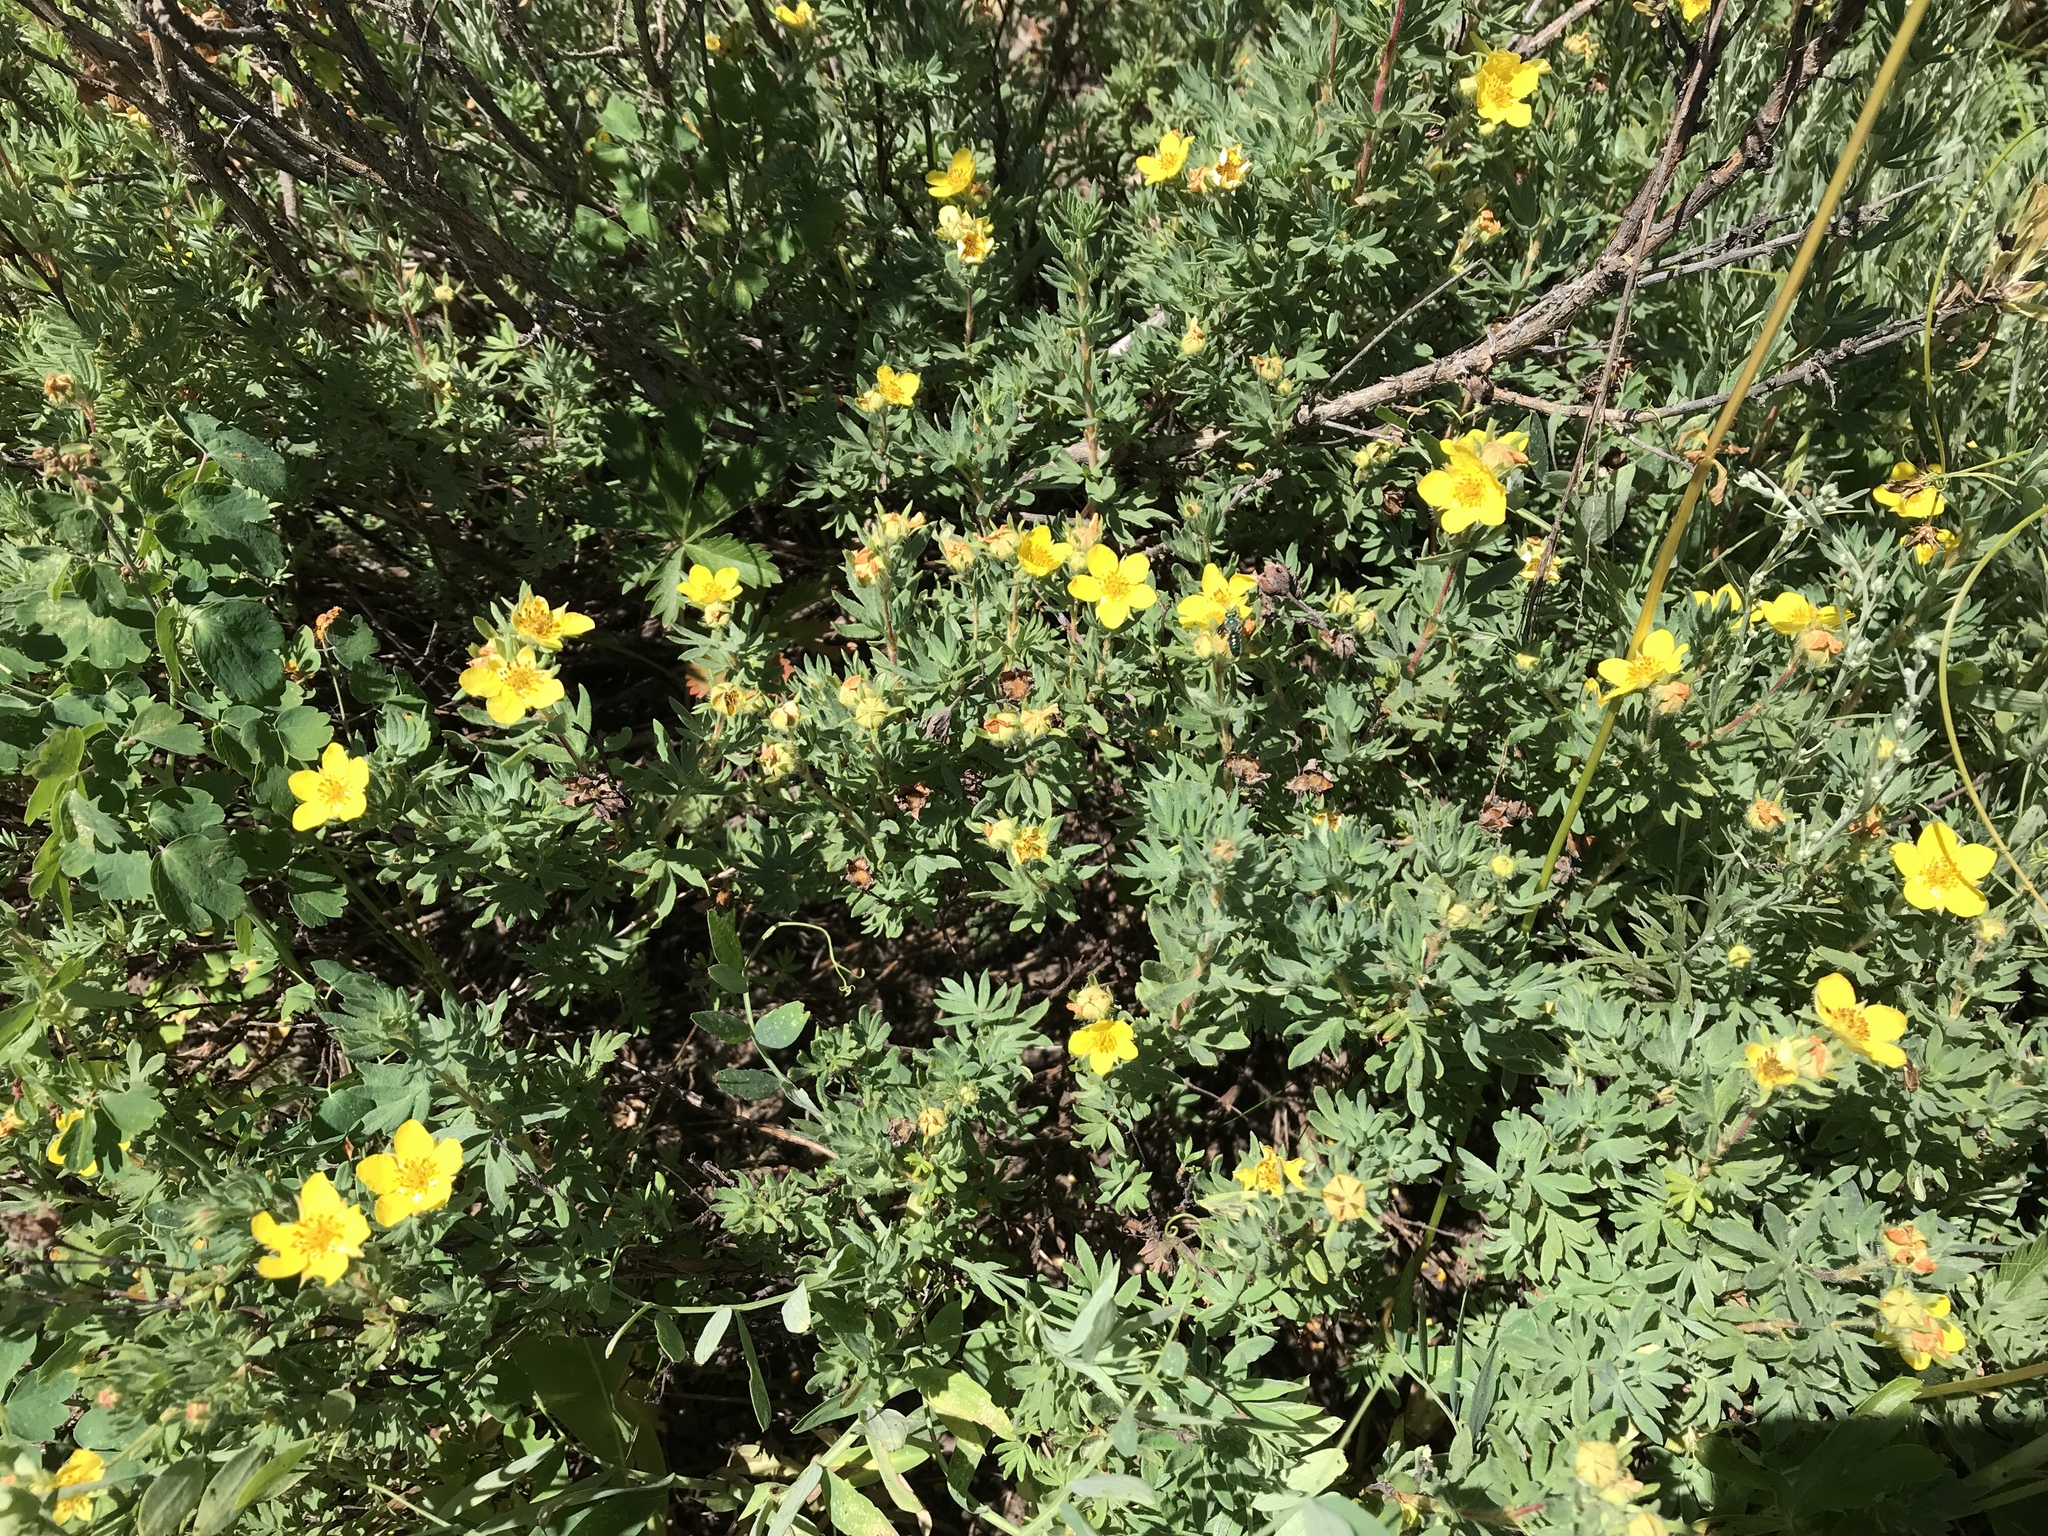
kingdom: Plantae
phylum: Tracheophyta
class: Magnoliopsida
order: Rosales
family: Rosaceae
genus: Dasiphora
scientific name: Dasiphora fruticosa
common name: Shrubby cinquefoil
